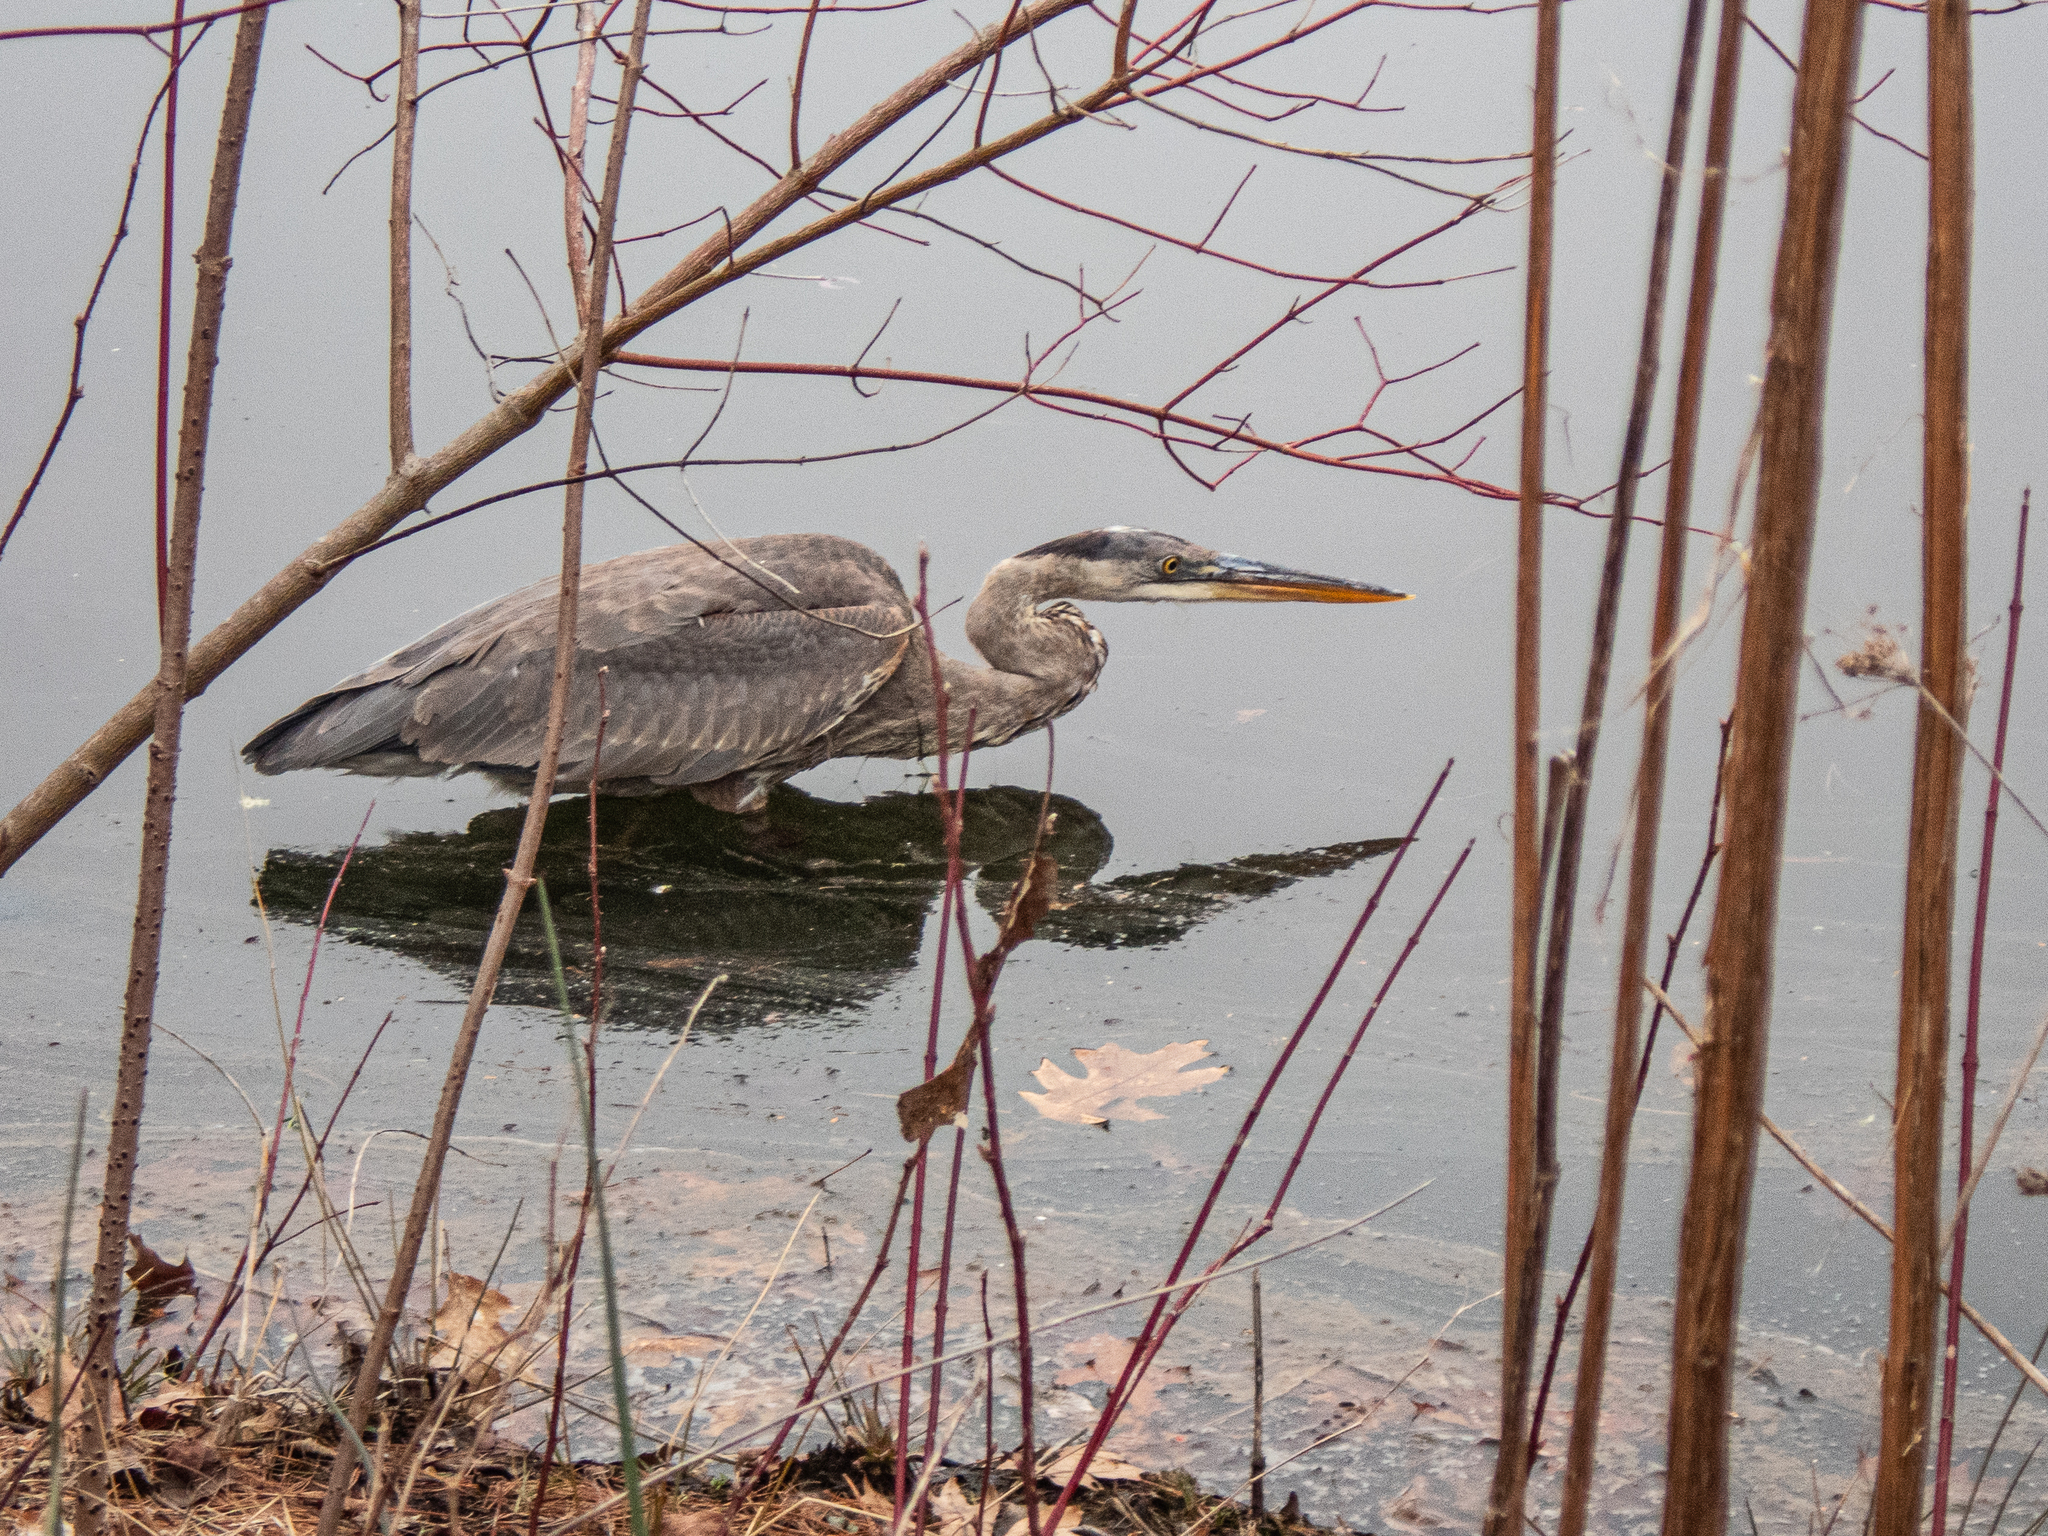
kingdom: Animalia
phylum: Chordata
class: Aves
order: Pelecaniformes
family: Ardeidae
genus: Ardea
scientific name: Ardea herodias
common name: Great blue heron
